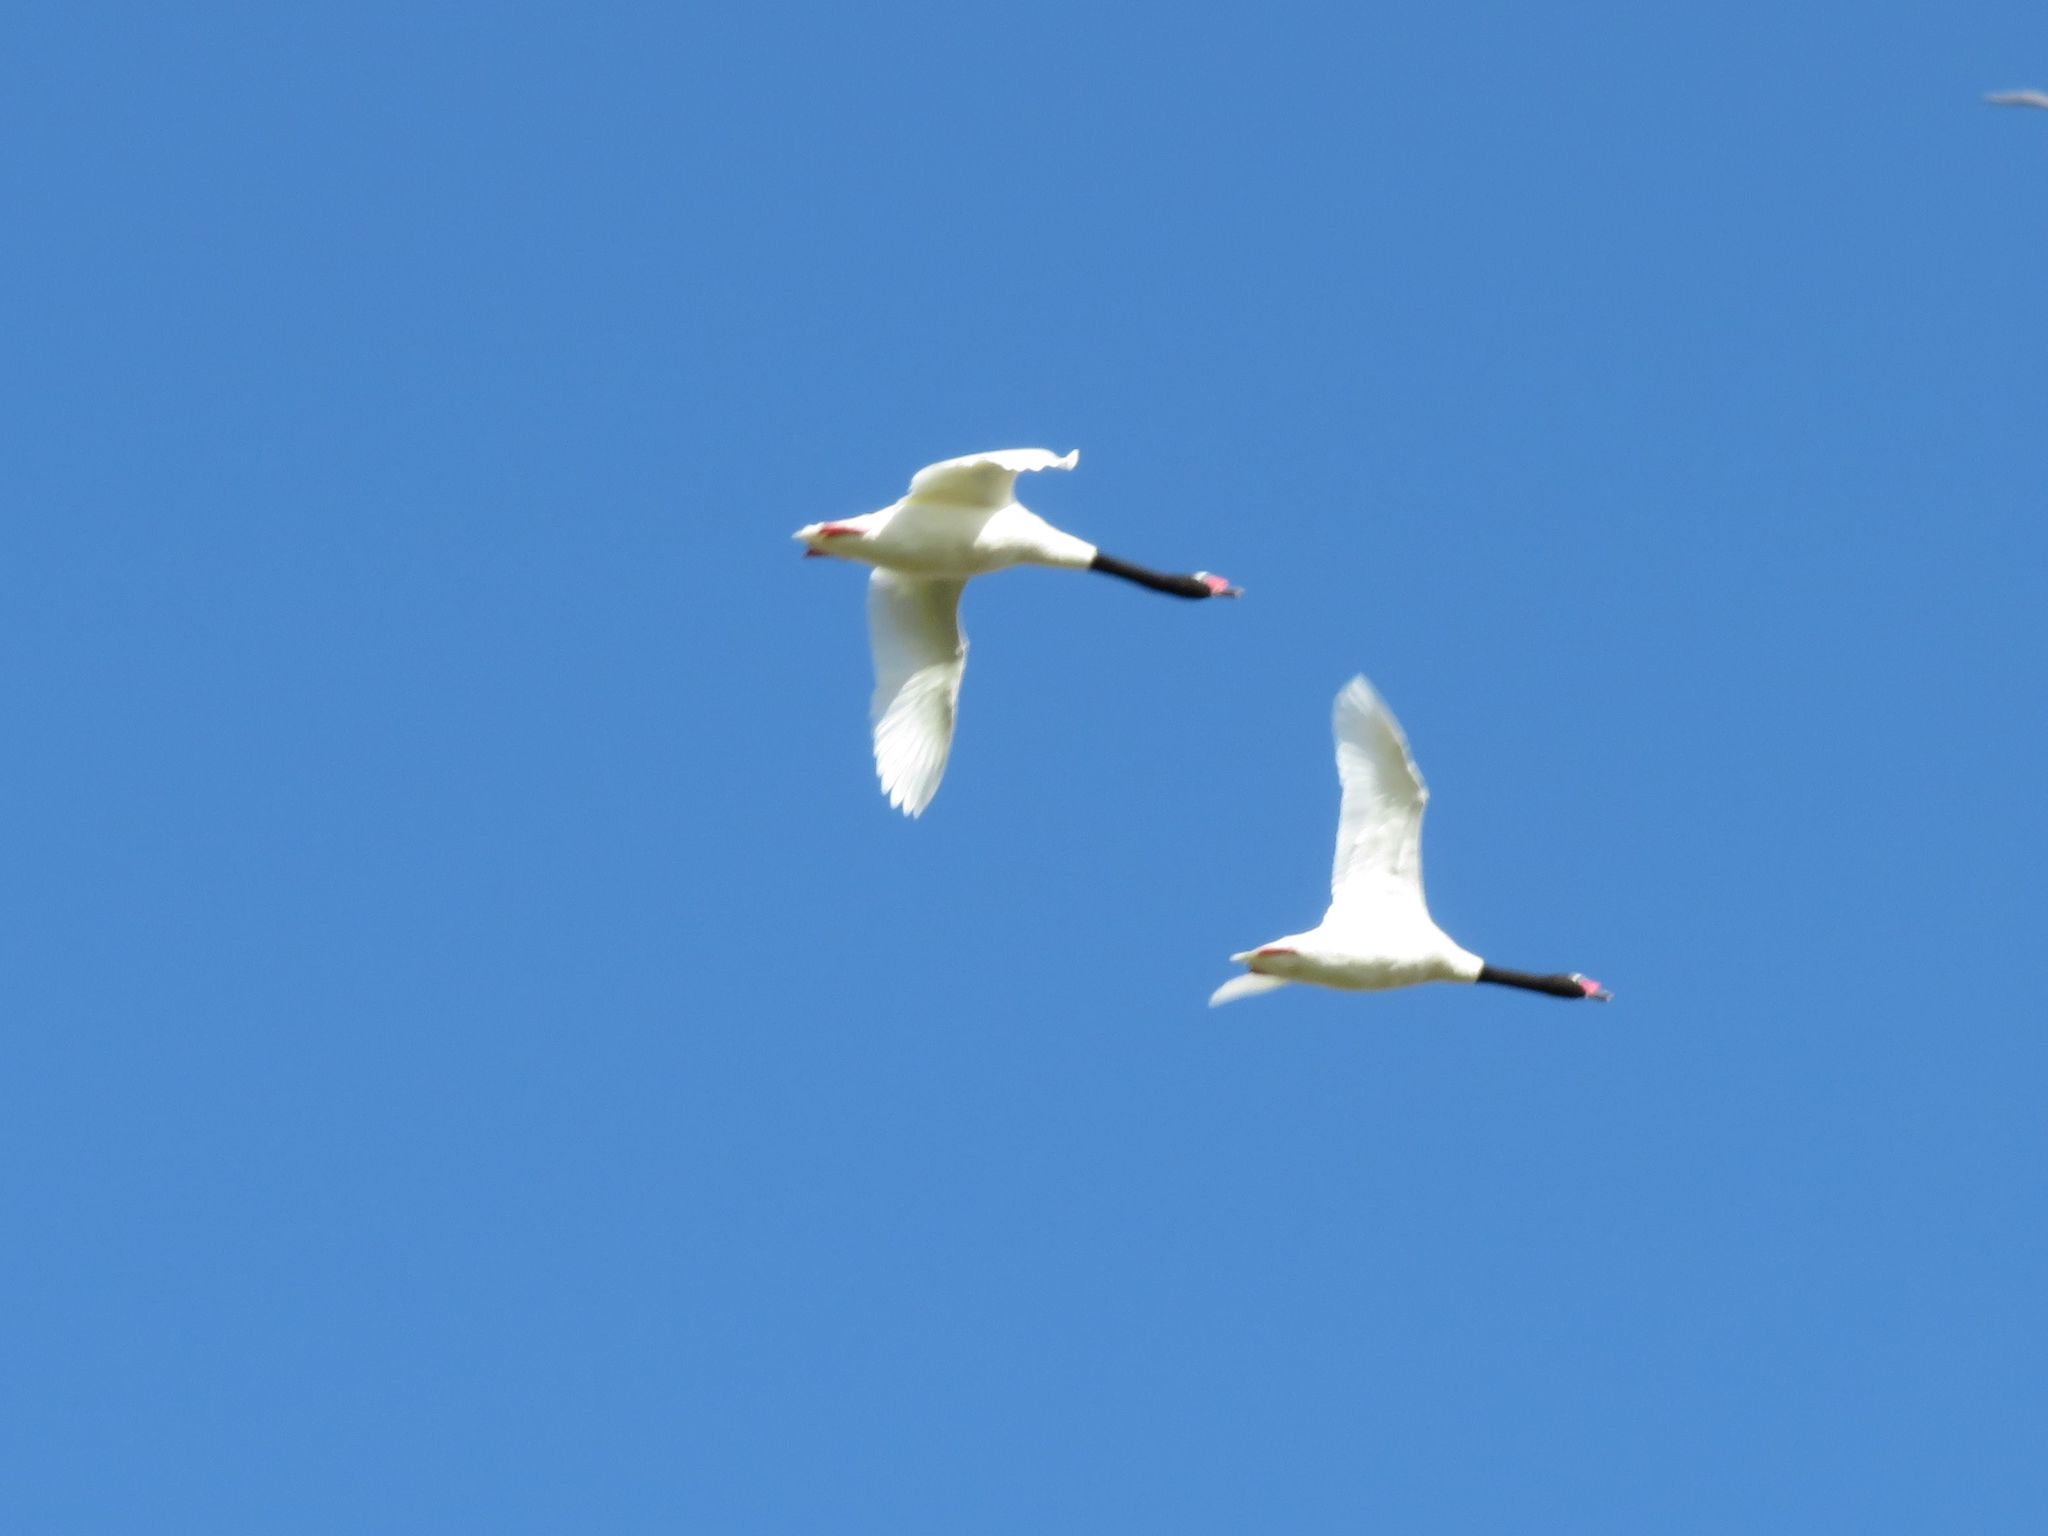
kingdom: Animalia
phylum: Chordata
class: Aves
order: Anseriformes
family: Anatidae
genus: Cygnus
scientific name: Cygnus melancoryphus
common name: Black-necked swan
